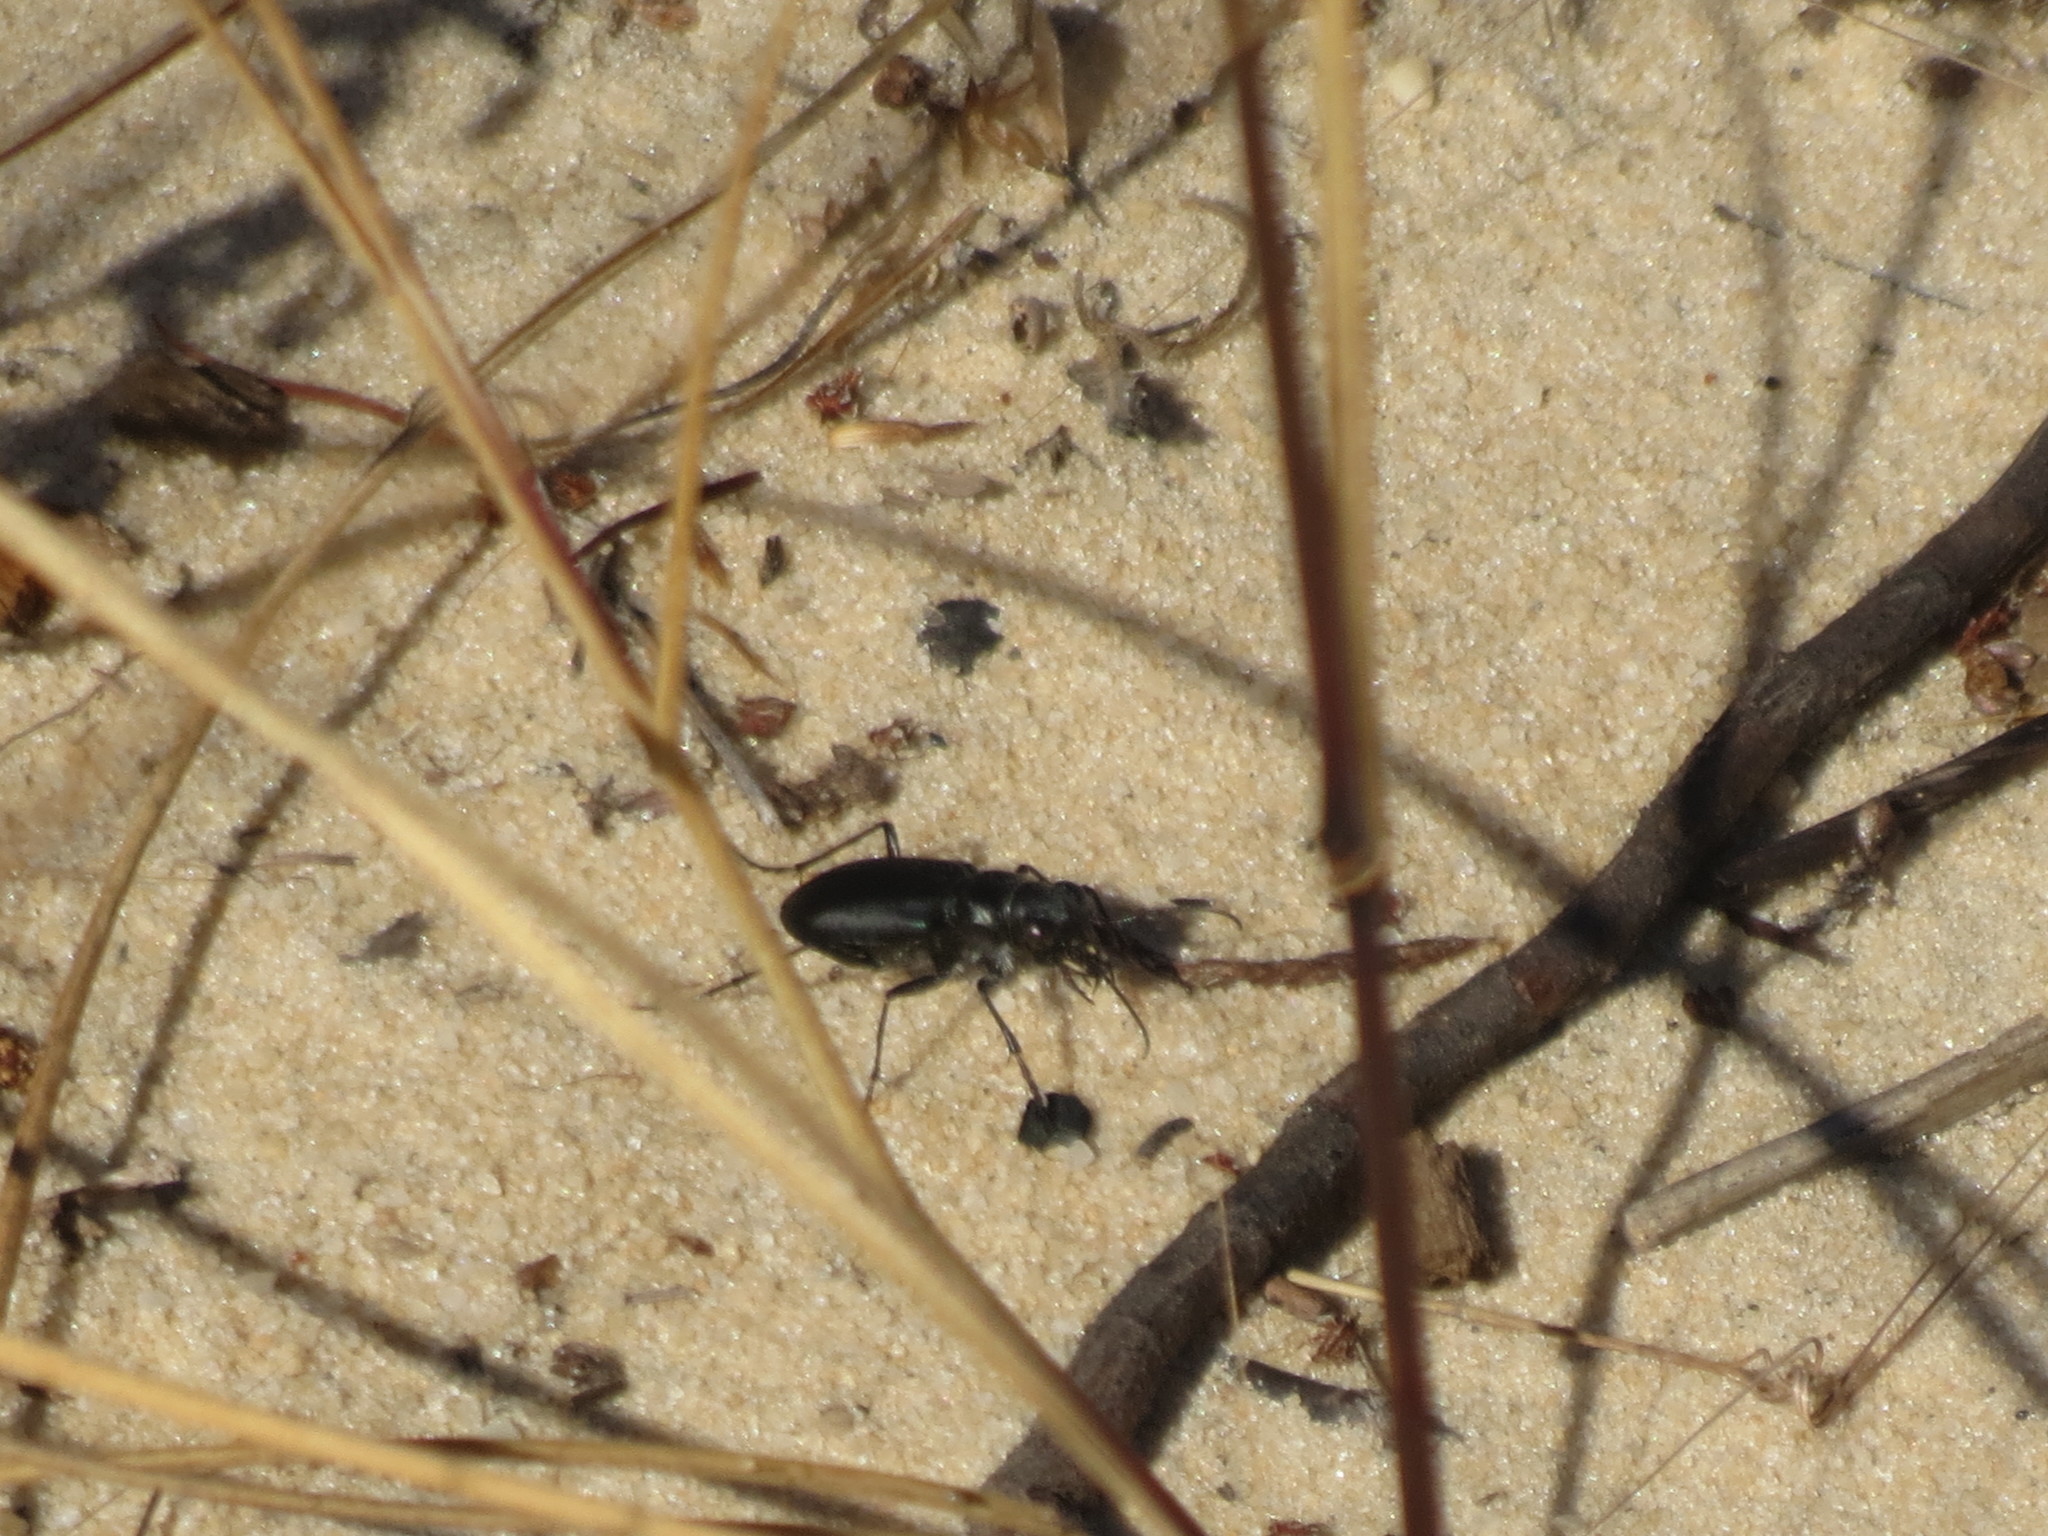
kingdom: Animalia
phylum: Arthropoda
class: Insecta
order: Coleoptera
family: Carabidae
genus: Cicindela
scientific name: Cicindela nigrior
